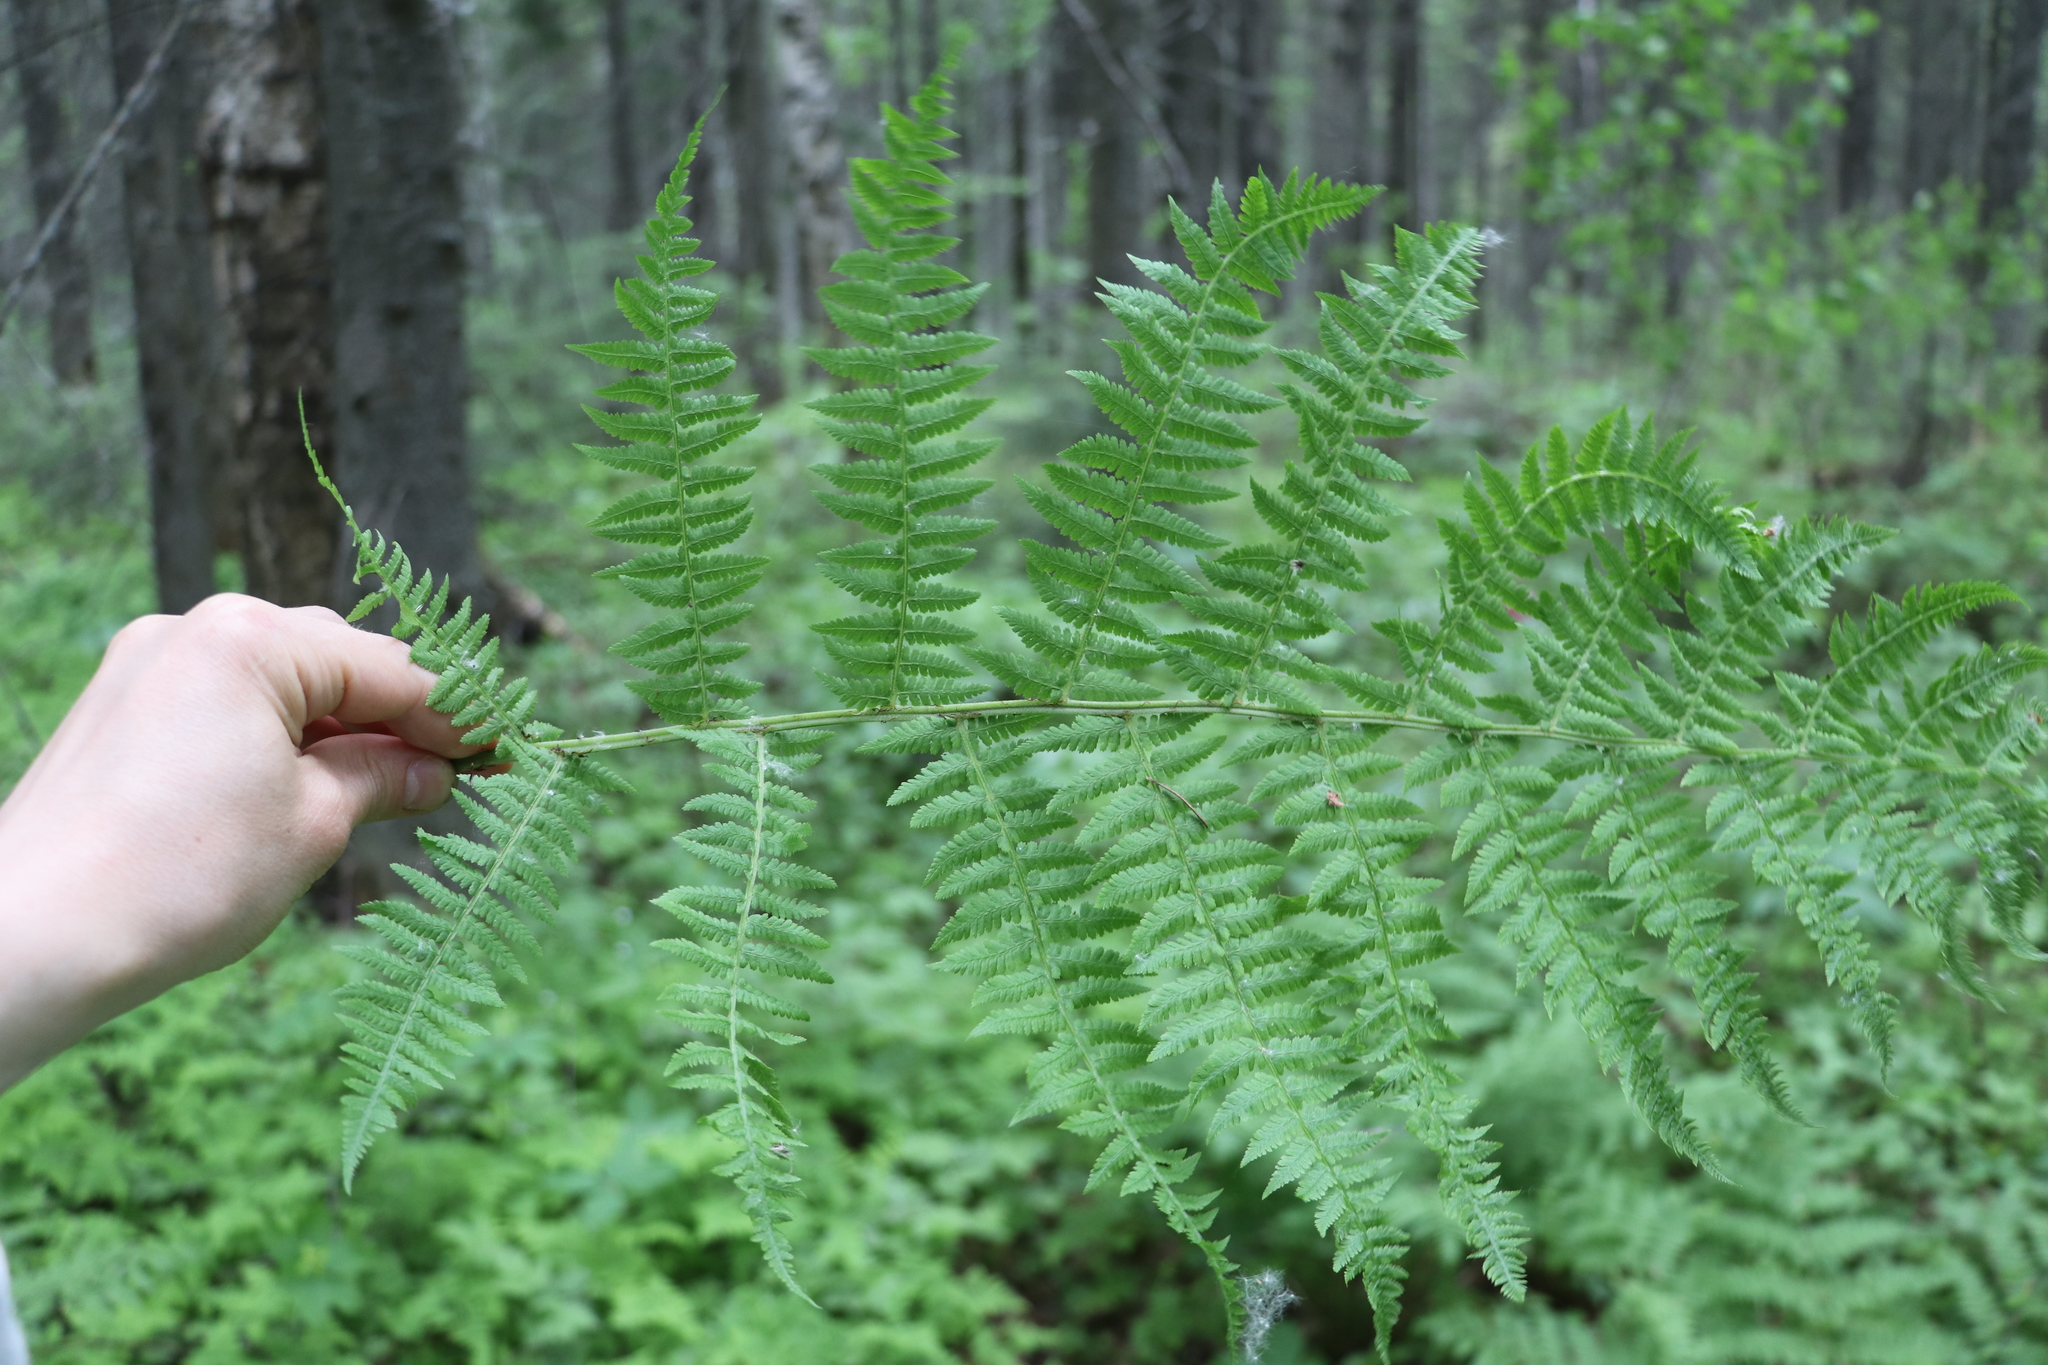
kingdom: Plantae
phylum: Tracheophyta
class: Polypodiopsida
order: Polypodiales
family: Athyriaceae
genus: Athyrium
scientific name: Athyrium filix-femina
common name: Lady fern
